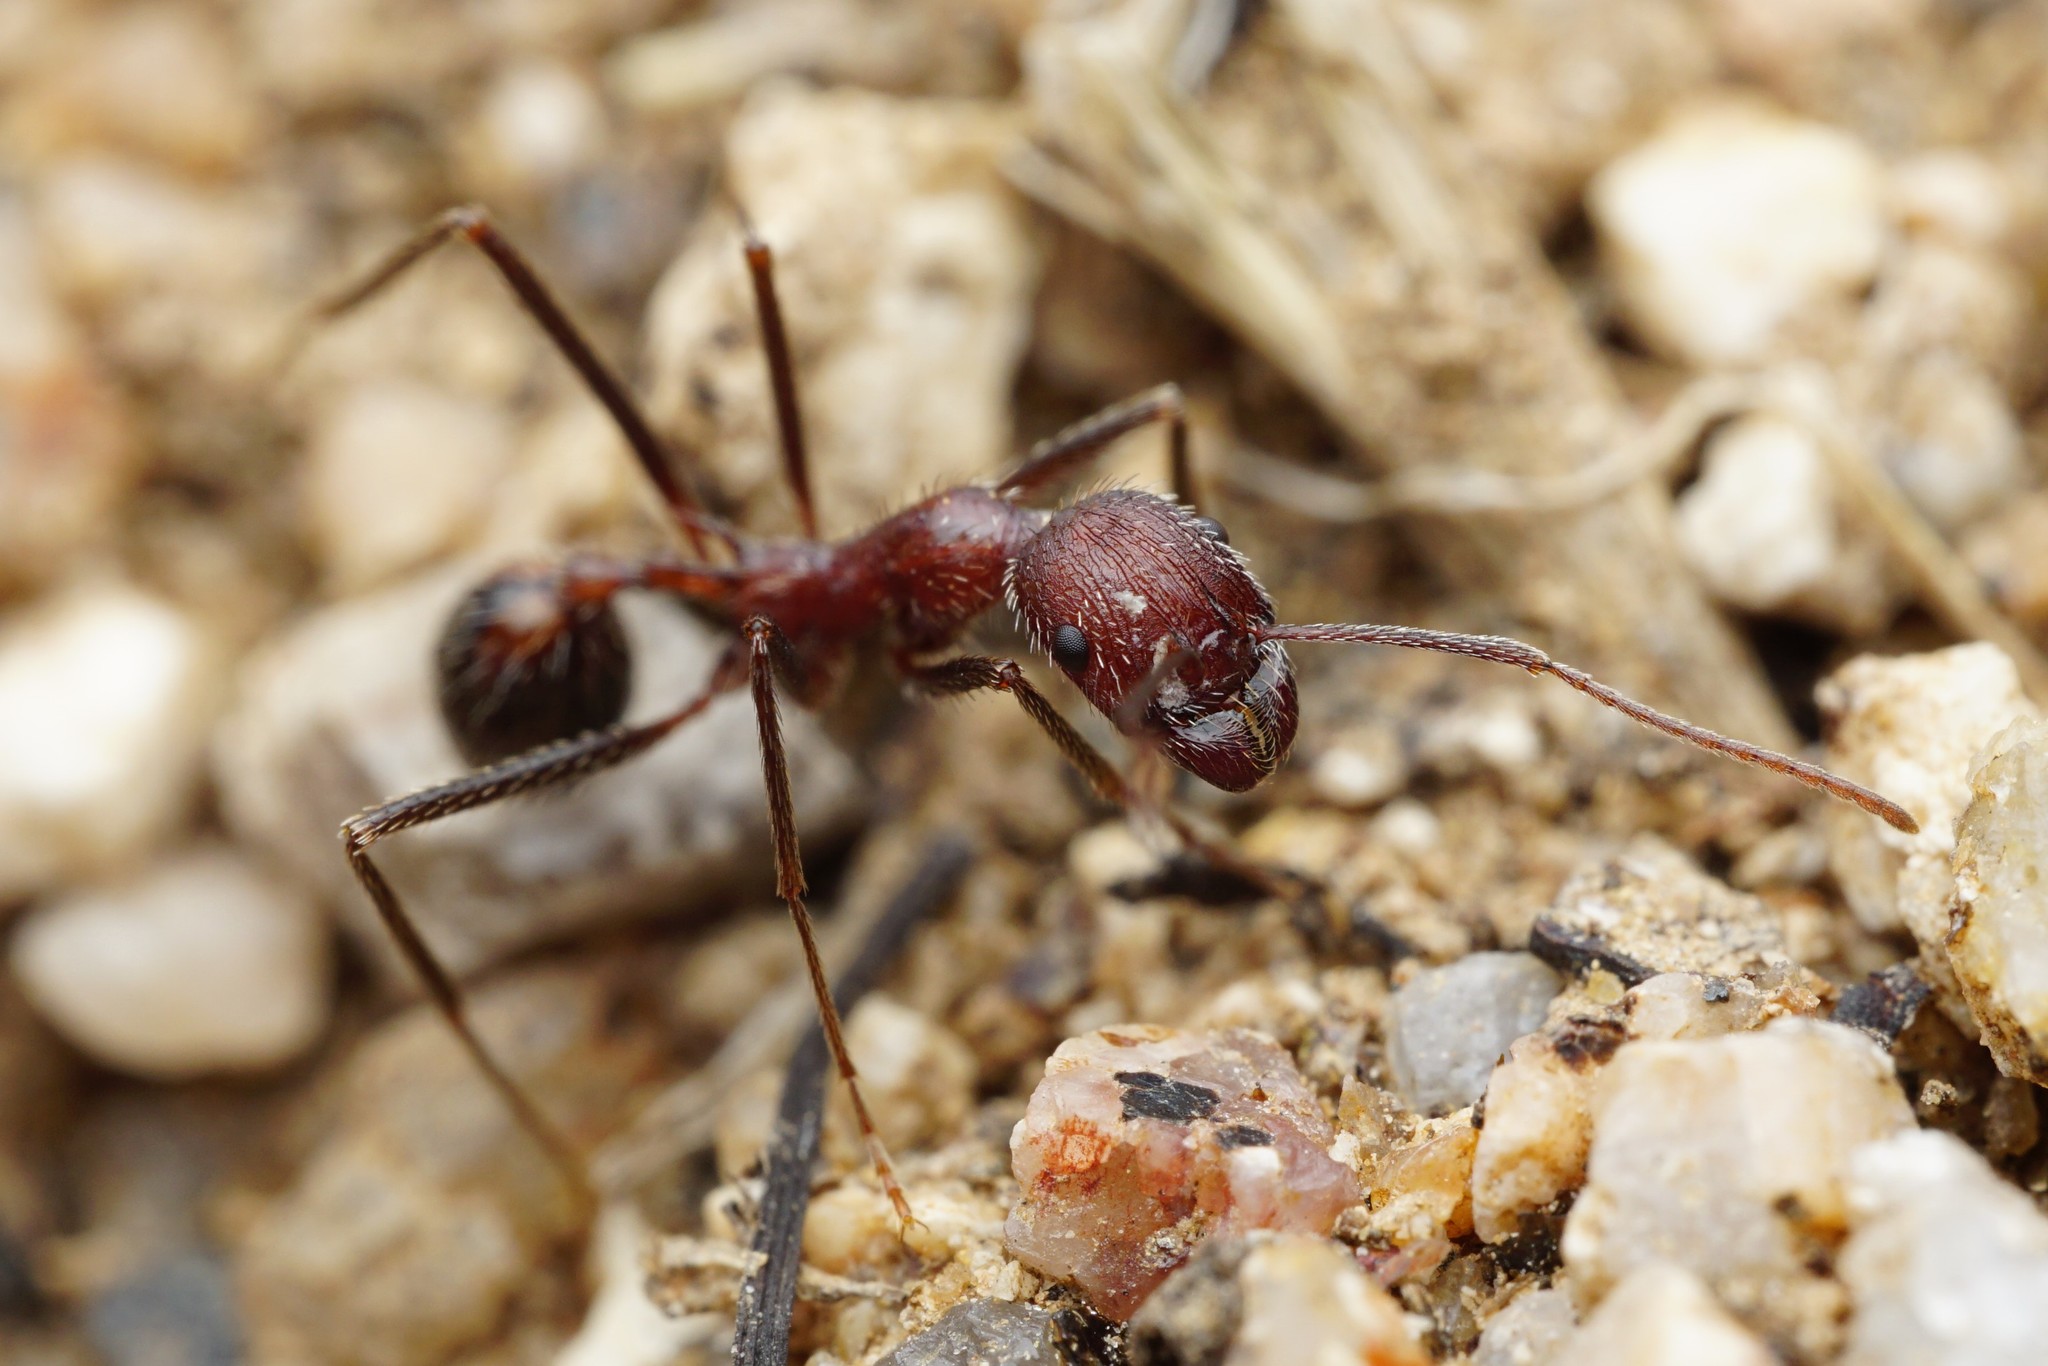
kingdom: Animalia
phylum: Arthropoda
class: Insecta
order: Hymenoptera
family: Formicidae
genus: Novomessor
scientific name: Novomessor albisetosa
